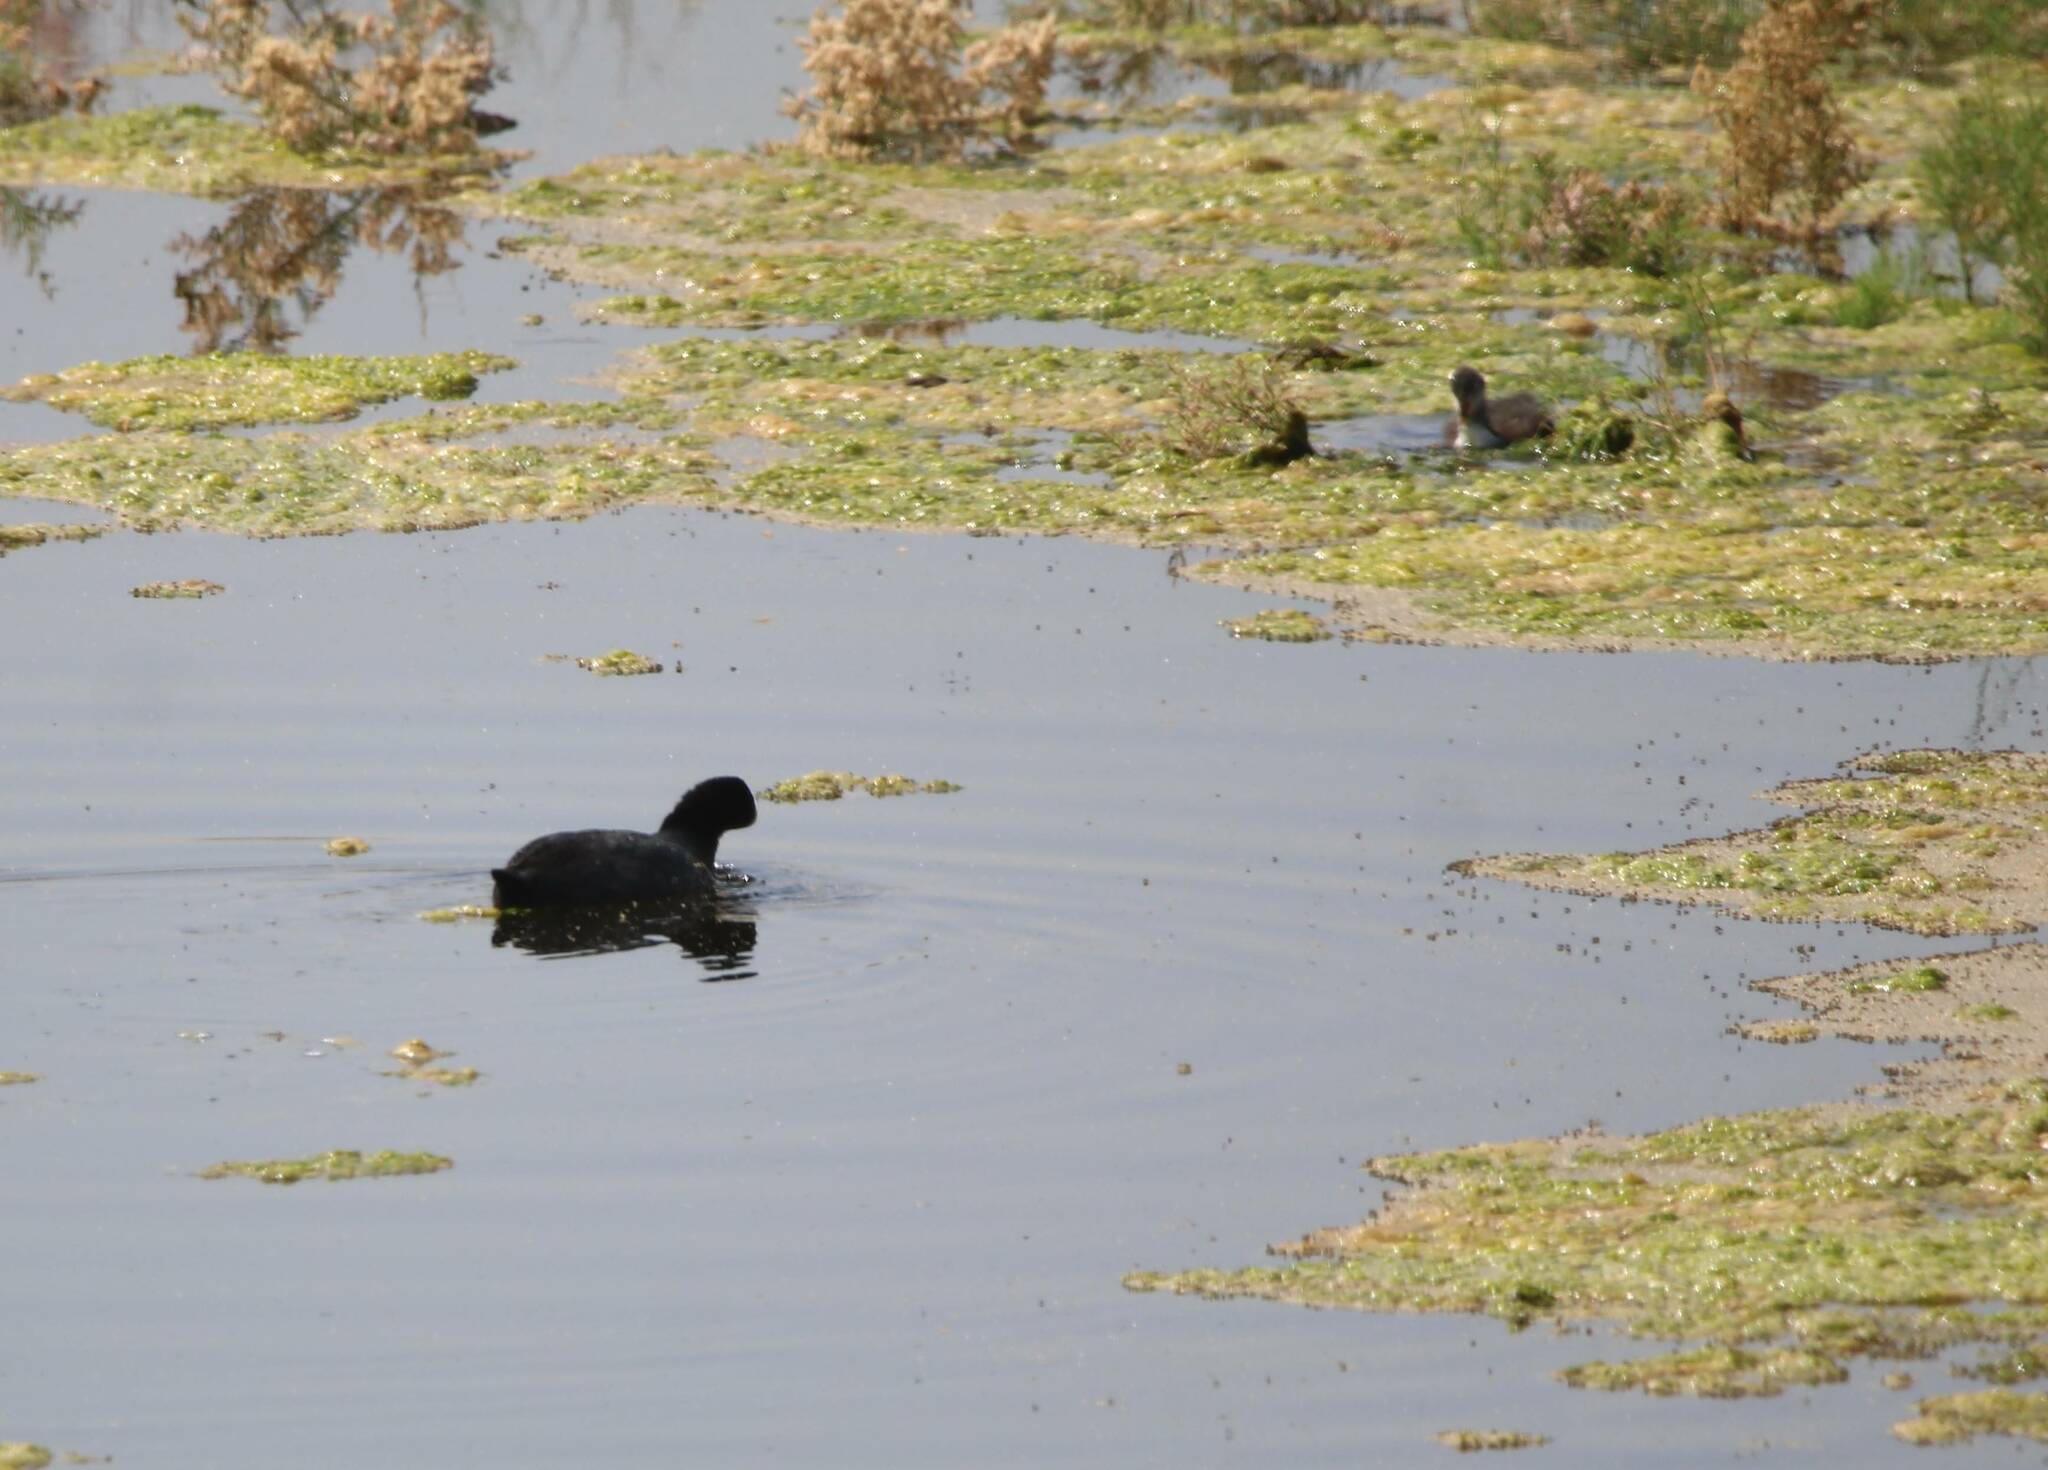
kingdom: Animalia
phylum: Chordata
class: Aves
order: Gruiformes
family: Rallidae
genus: Fulica
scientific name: Fulica atra
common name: Eurasian coot
